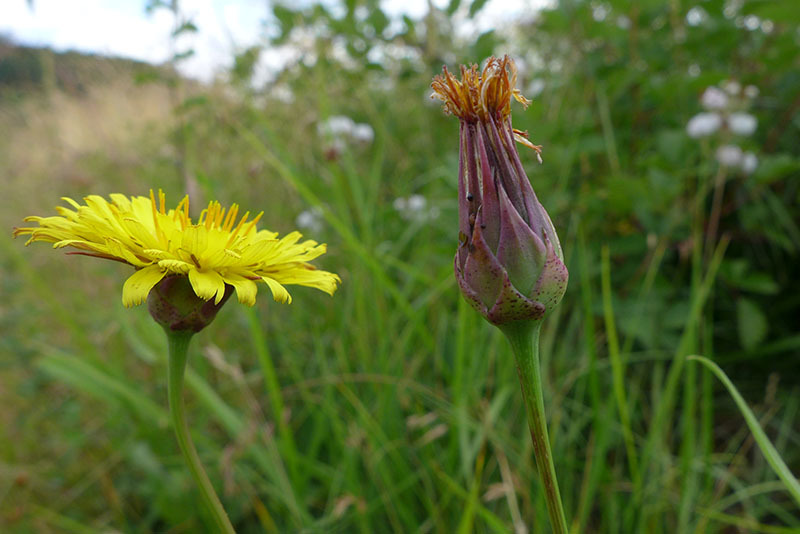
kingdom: Plantae
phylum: Tracheophyta
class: Magnoliopsida
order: Asterales
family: Asteraceae
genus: Microseris
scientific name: Microseris laciniata
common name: Cut-leaf microseris
